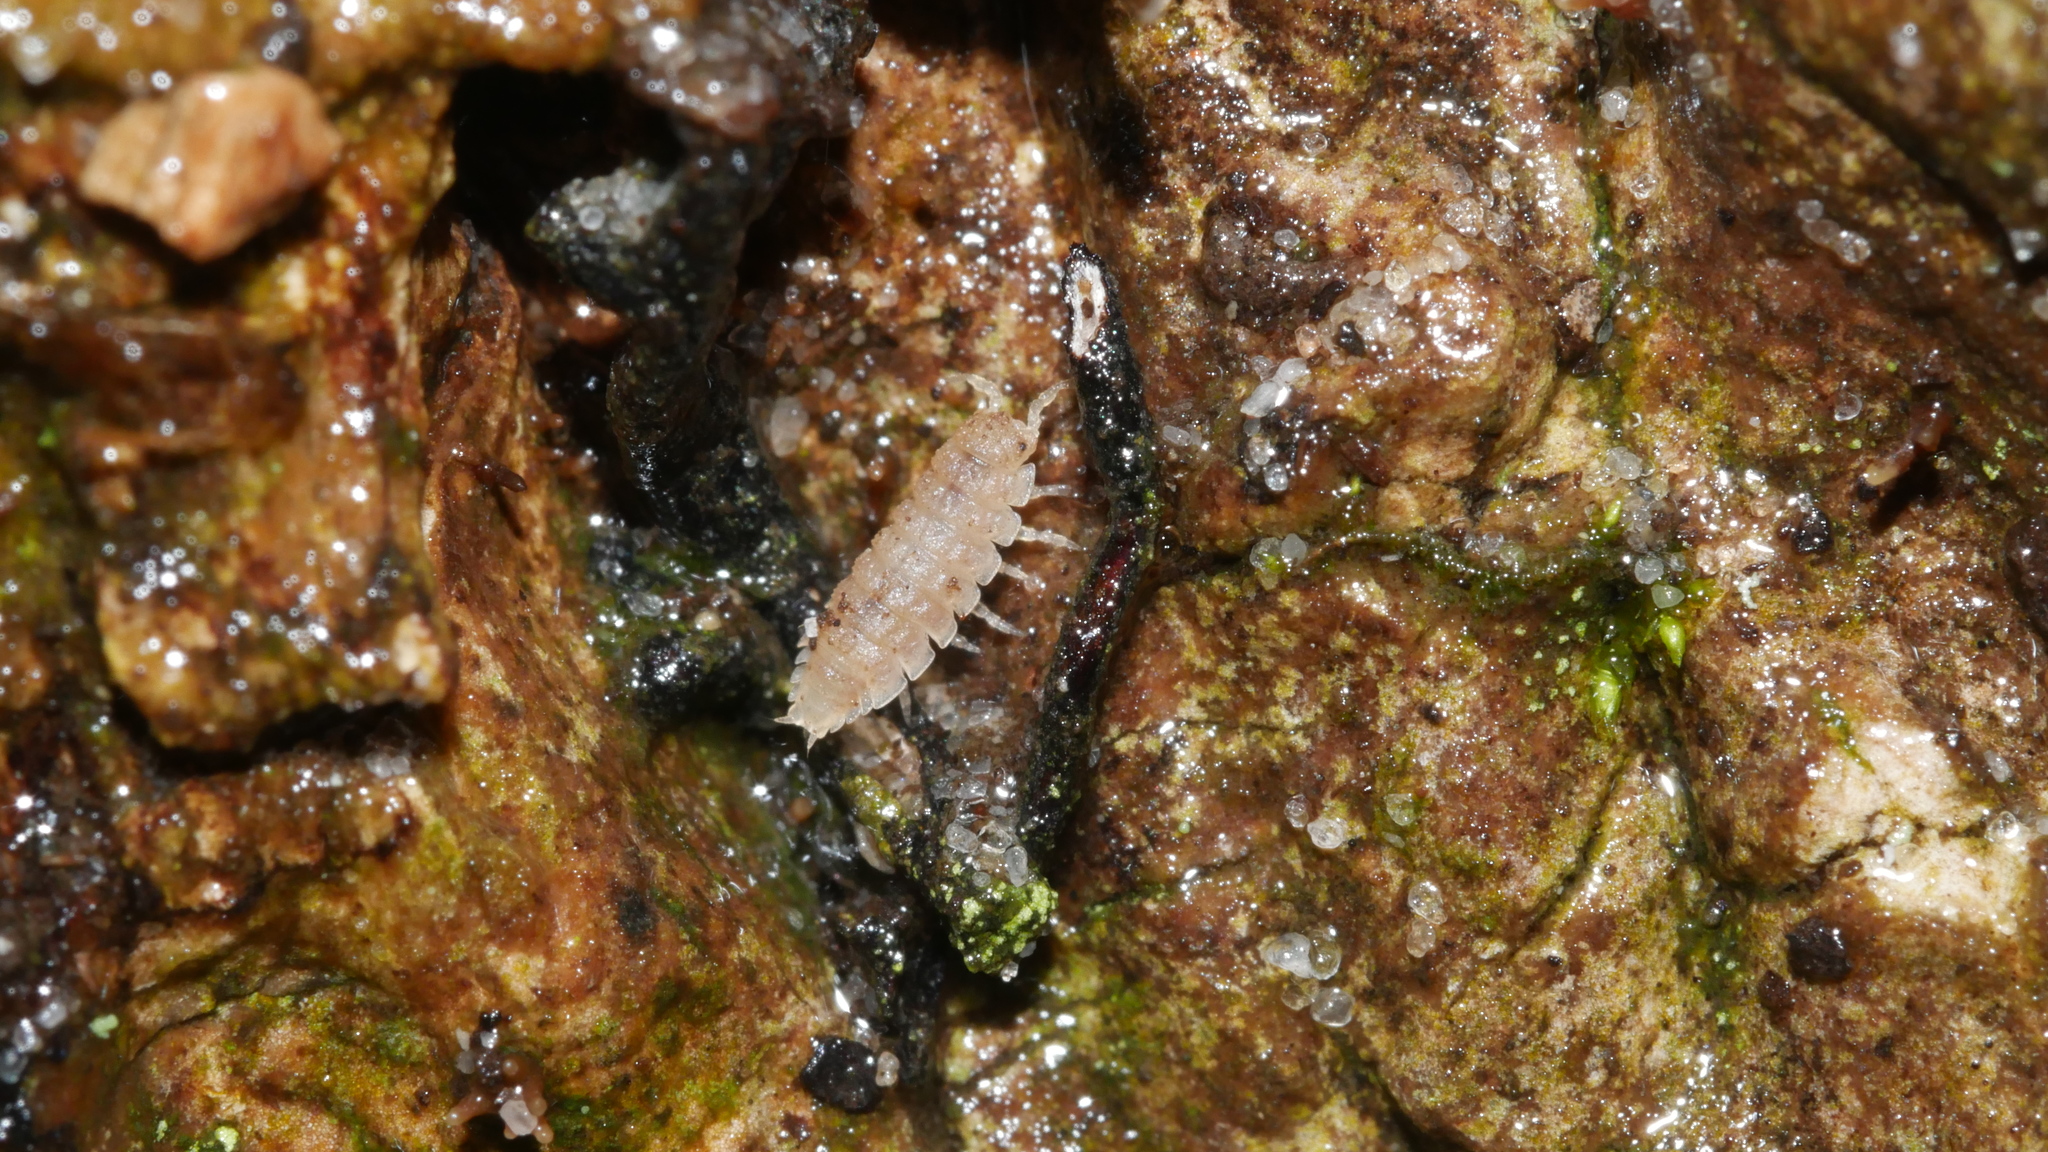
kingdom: Animalia
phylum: Arthropoda
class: Malacostraca
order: Isopoda
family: Trichoniscidae
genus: Haplophthalmus
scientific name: Haplophthalmus danicus
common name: Pillbug
